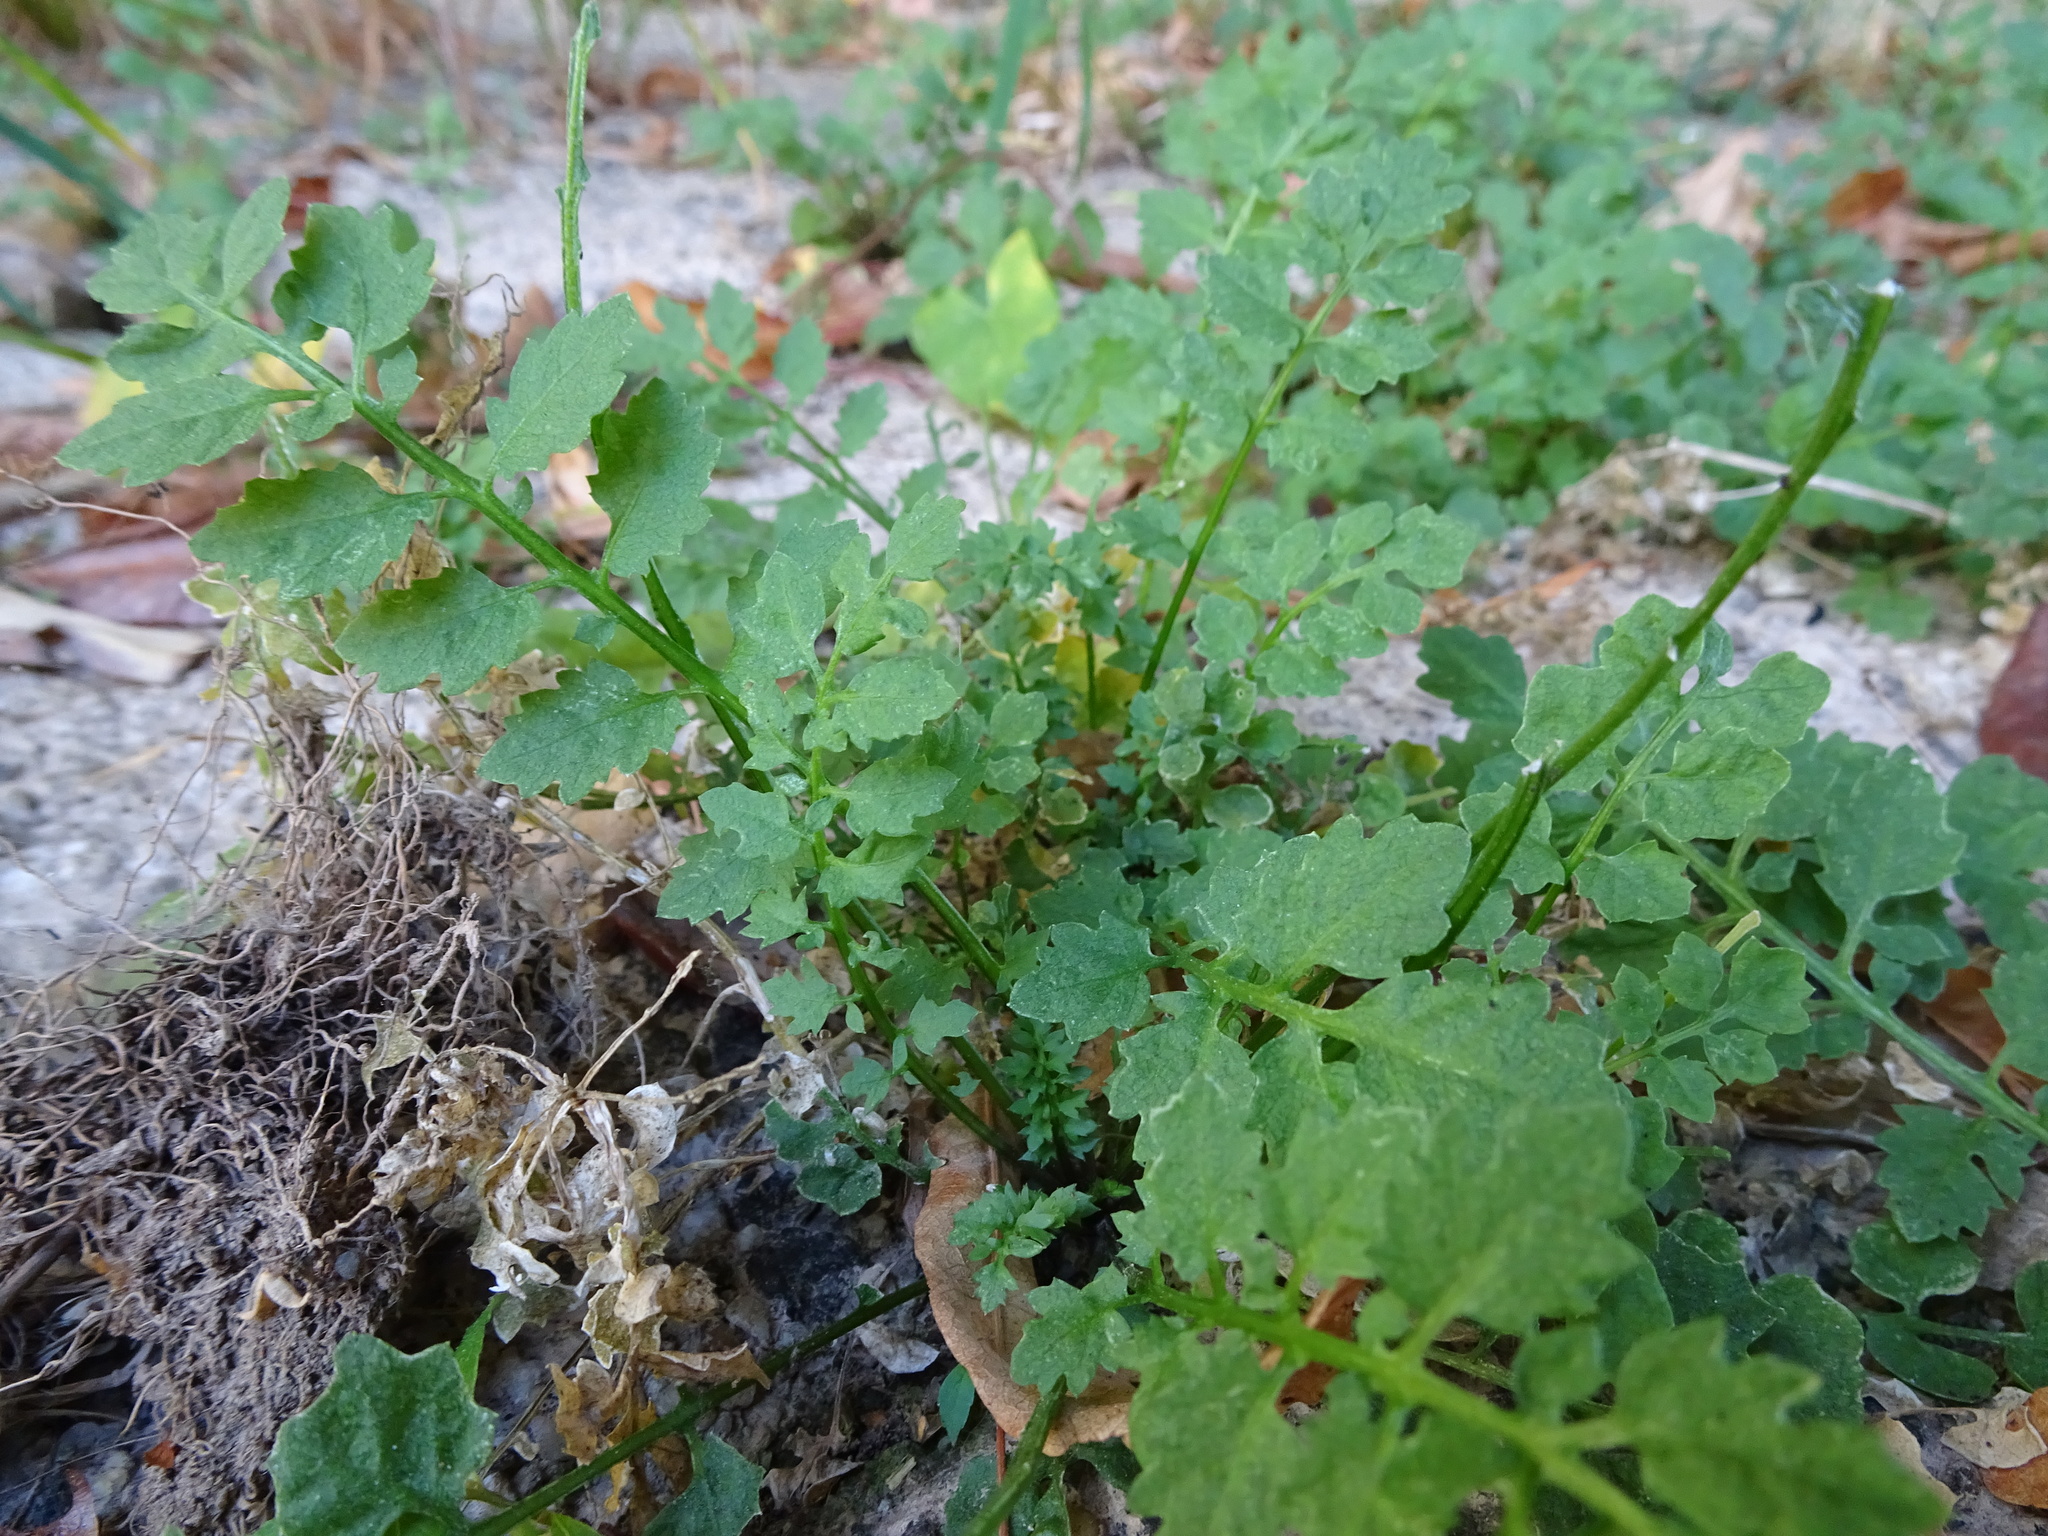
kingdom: Plantae
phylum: Tracheophyta
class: Magnoliopsida
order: Brassicales
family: Brassicaceae
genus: Cardamine
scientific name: Cardamine impatiens
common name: Narrow-leaved bitter-cress
